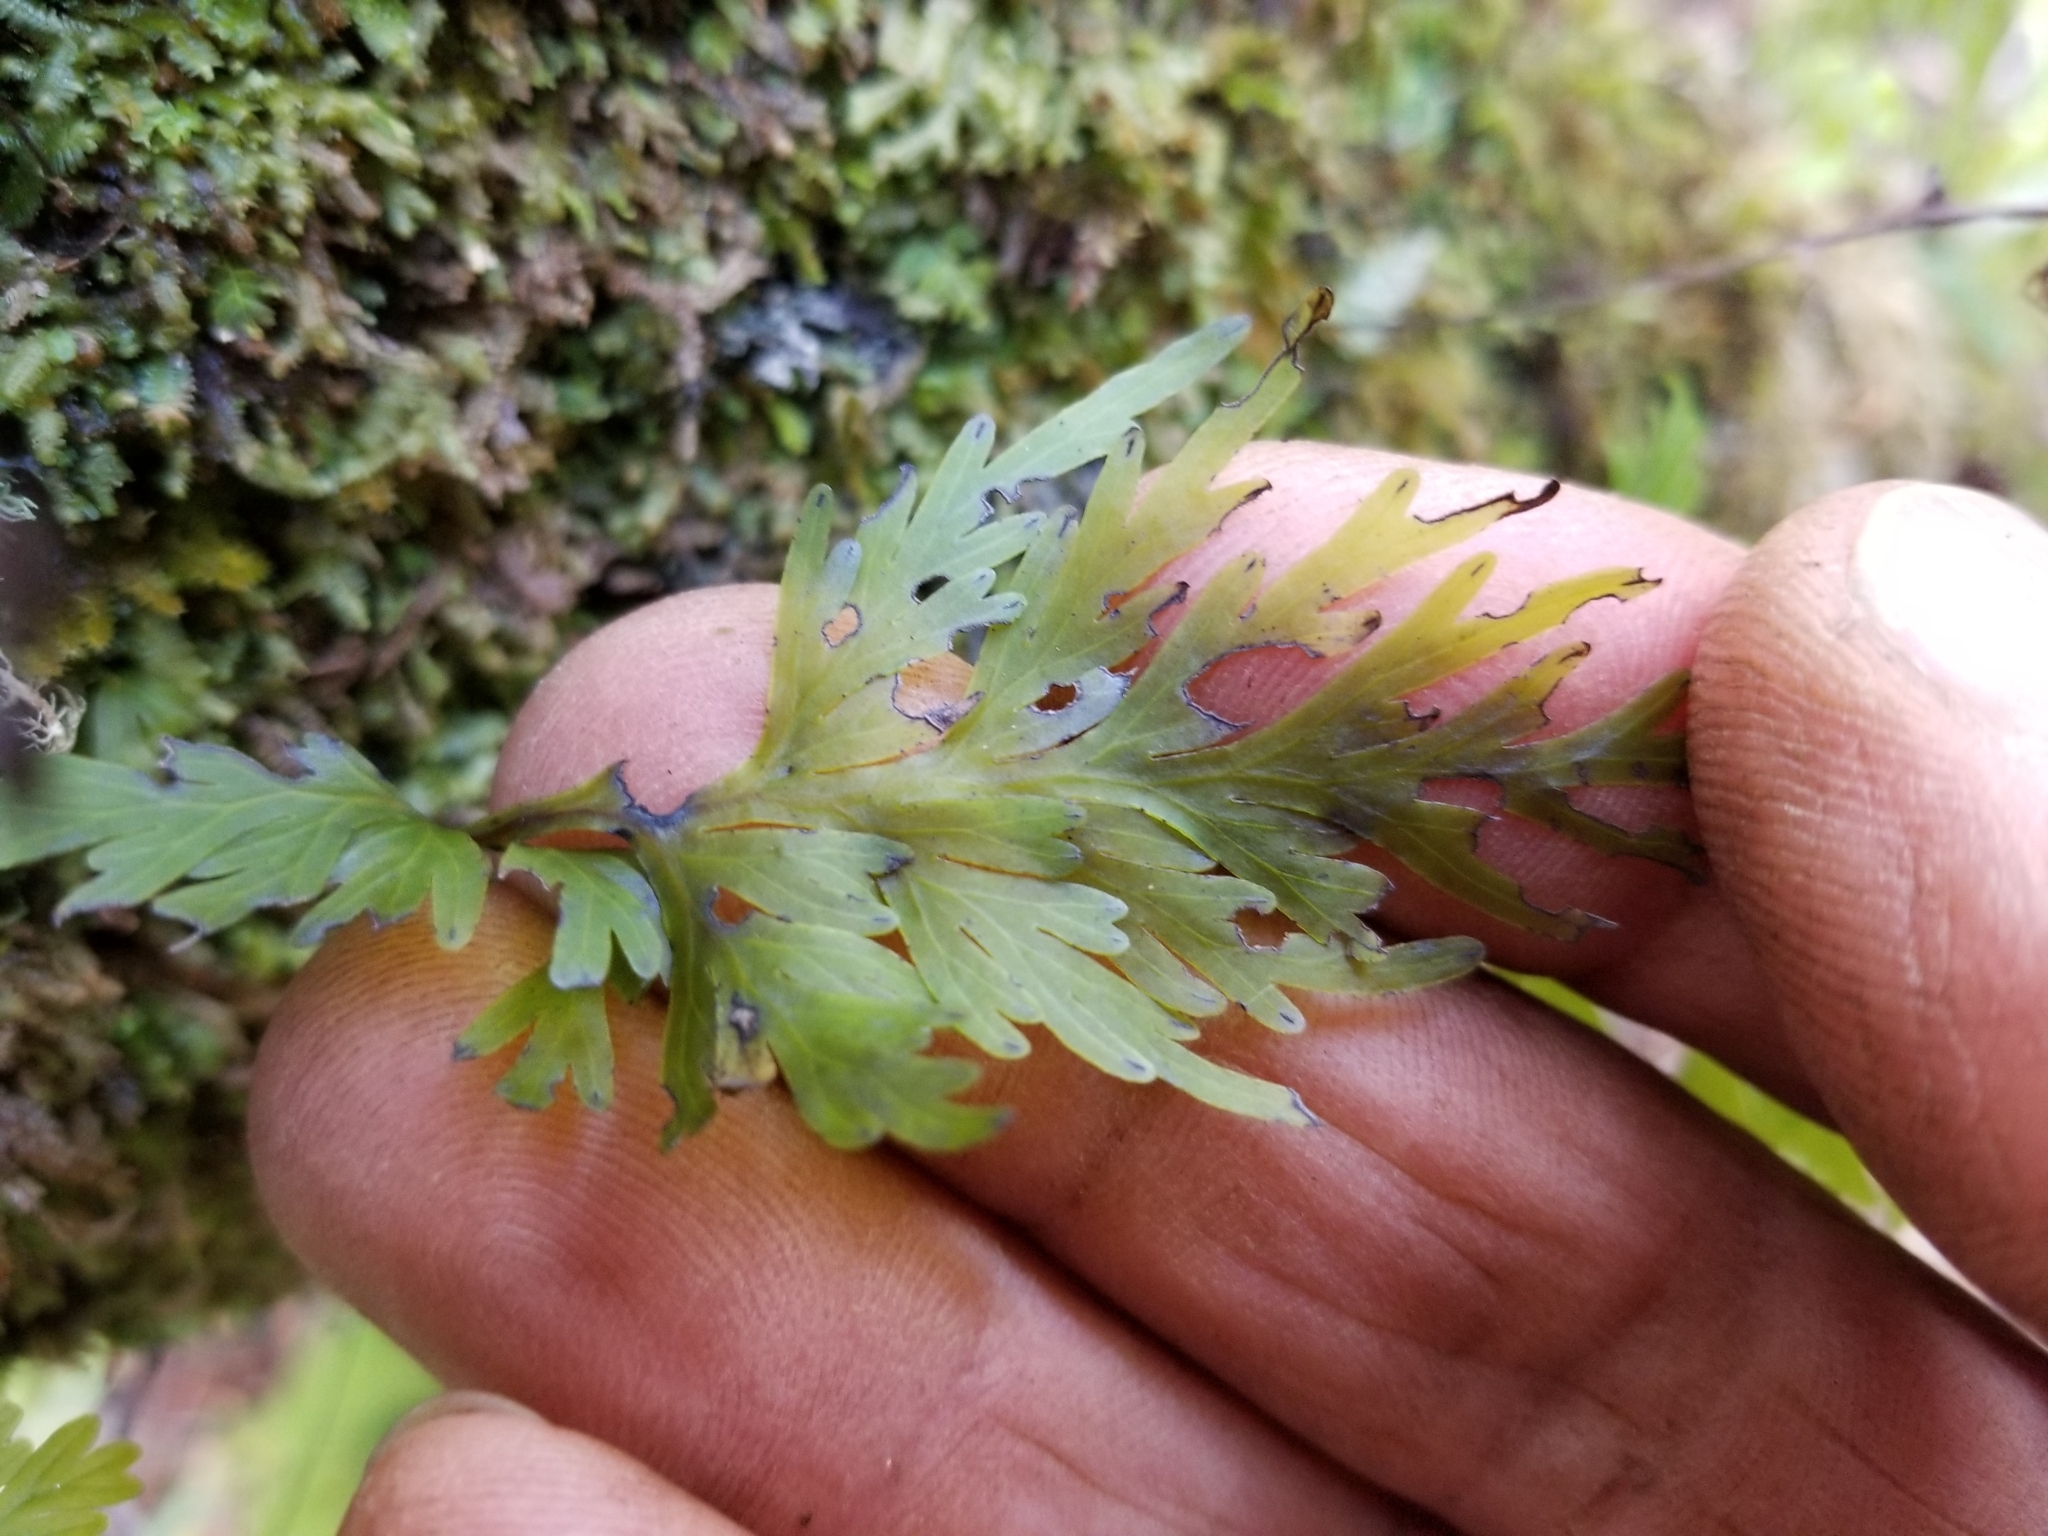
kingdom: Plantae
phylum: Tracheophyta
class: Polypodiopsida
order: Hymenophyllales
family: Hymenophyllaceae
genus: Hymenophyllum
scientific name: Hymenophyllum dilatatum
